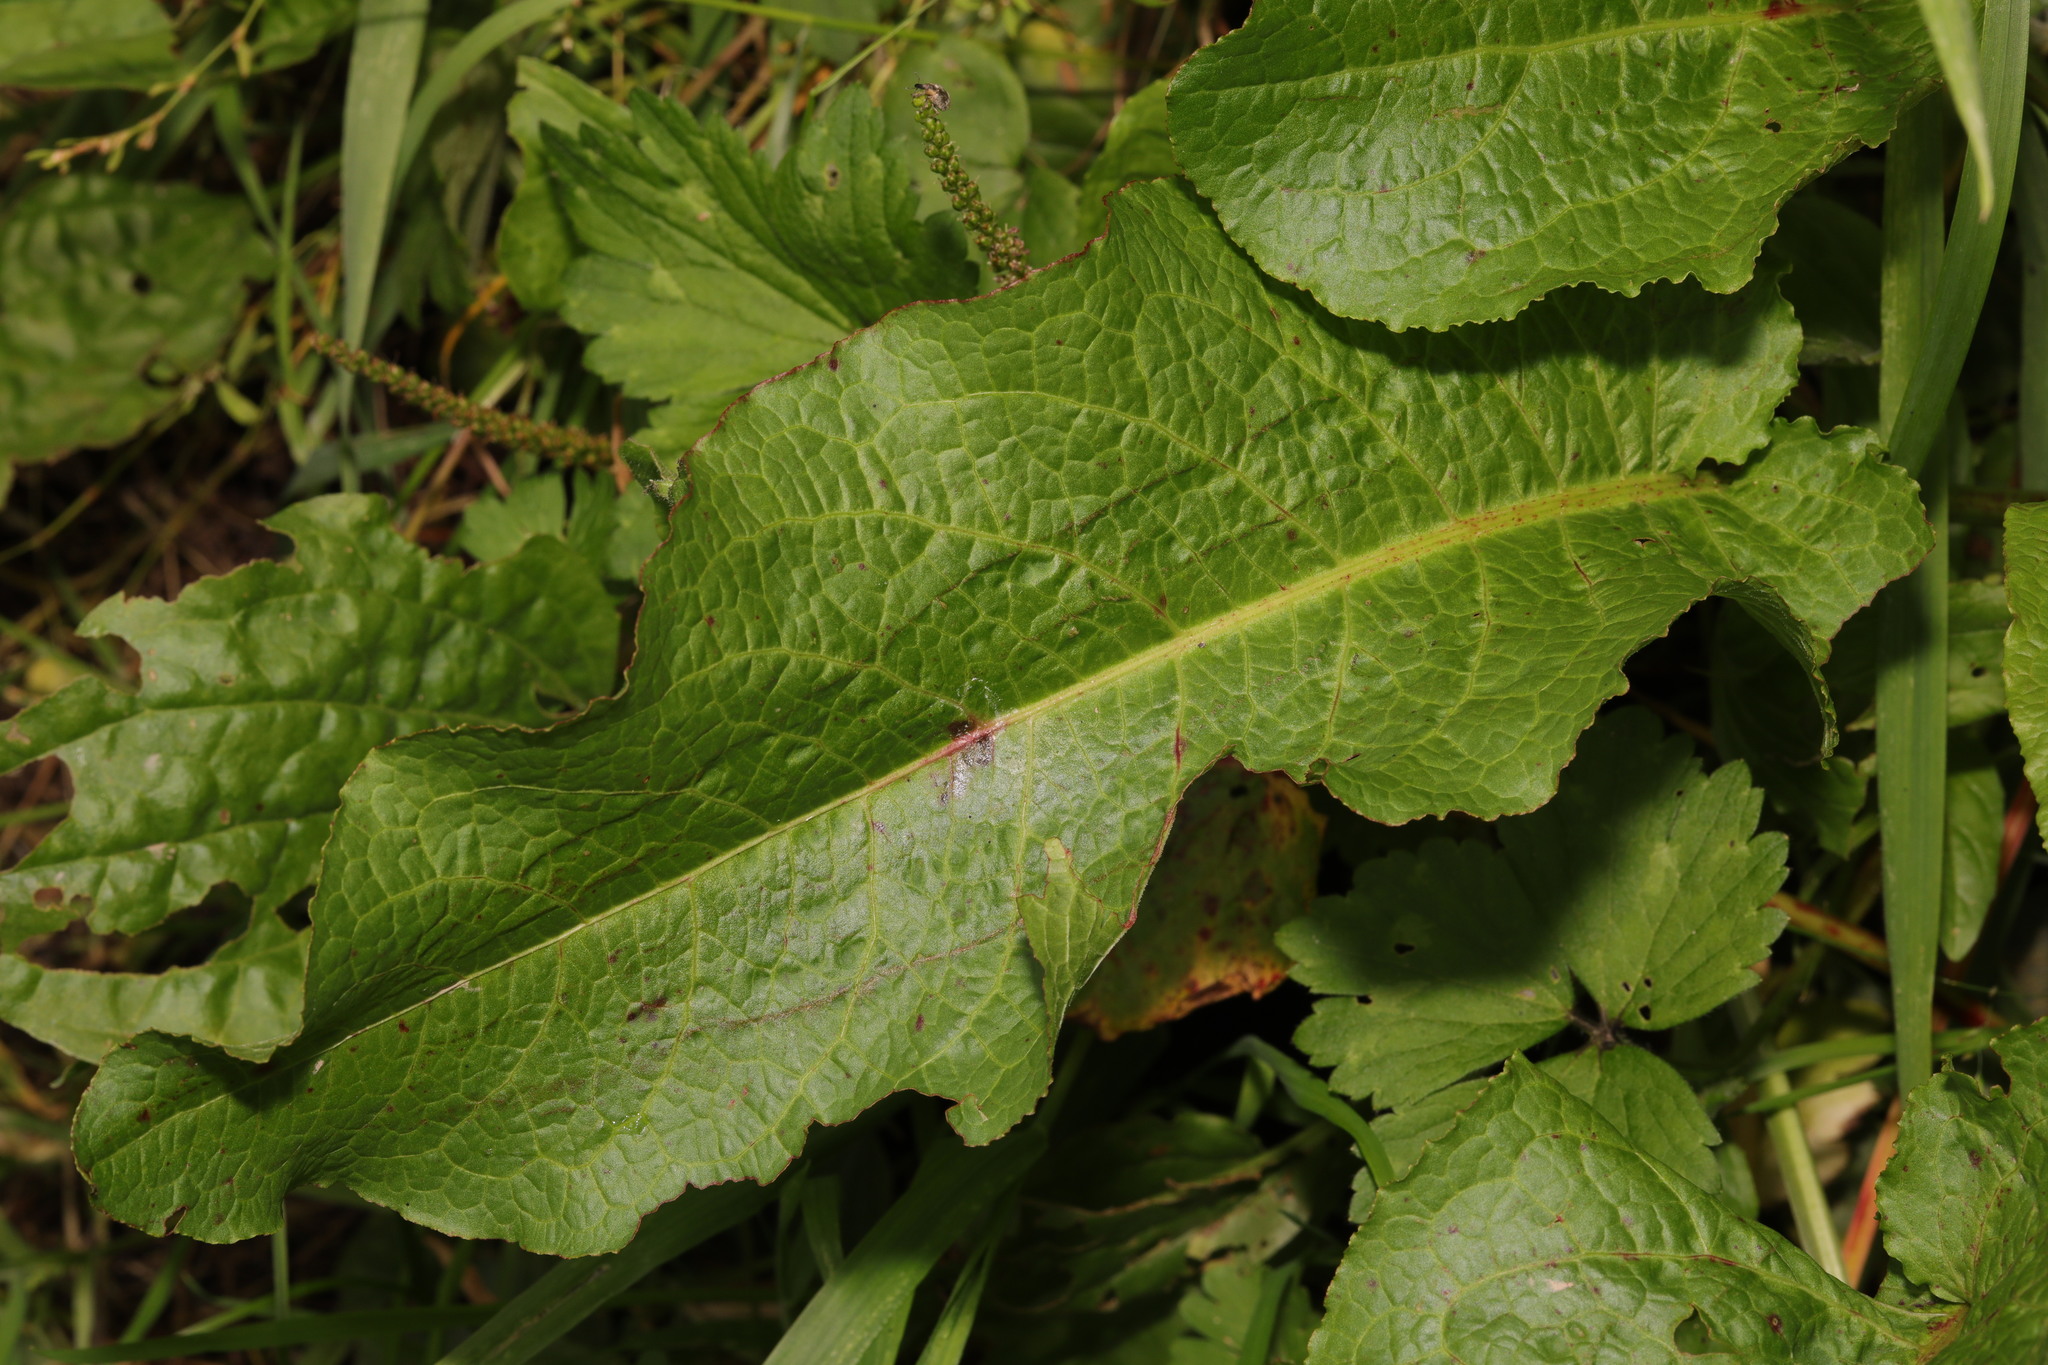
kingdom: Plantae
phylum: Tracheophyta
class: Magnoliopsida
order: Caryophyllales
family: Polygonaceae
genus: Rumex
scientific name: Rumex obtusifolius
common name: Bitter dock
